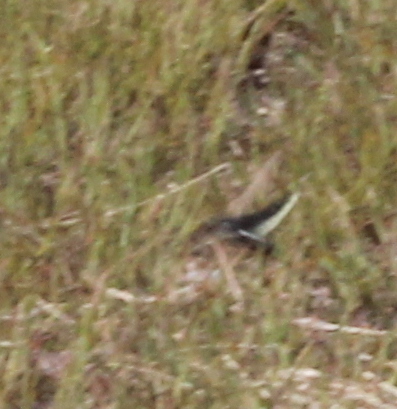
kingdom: Animalia
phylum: Arthropoda
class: Insecta
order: Orthoptera
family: Acrididae
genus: Dissosteira
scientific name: Dissosteira carolina
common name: Carolina grasshopper
